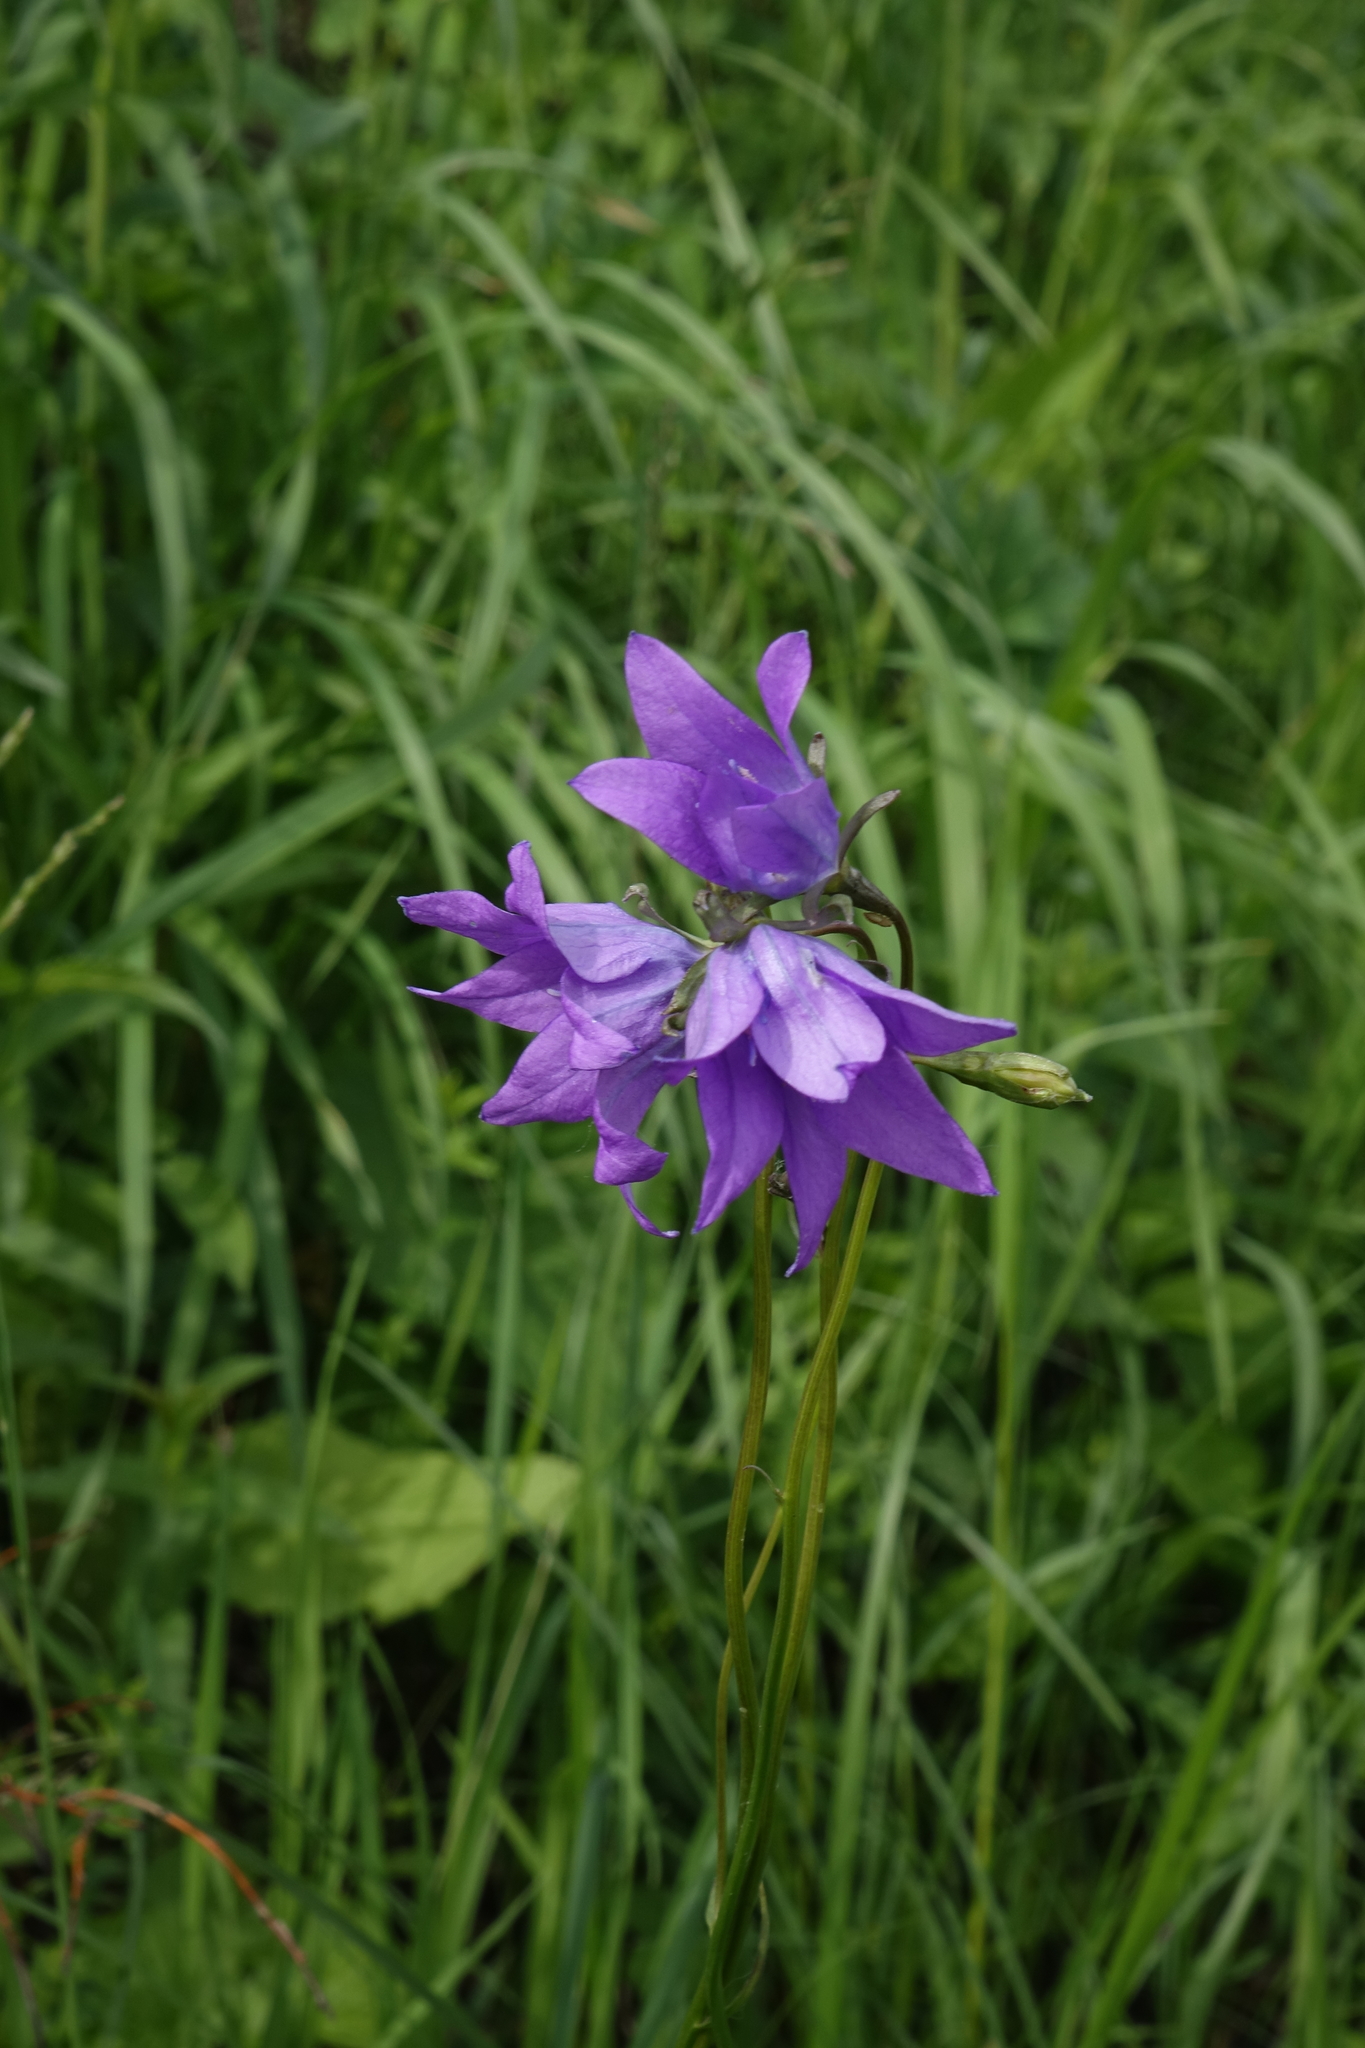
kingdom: Plantae
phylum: Tracheophyta
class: Magnoliopsida
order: Asterales
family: Campanulaceae
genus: Campanula
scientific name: Campanula stevenii
